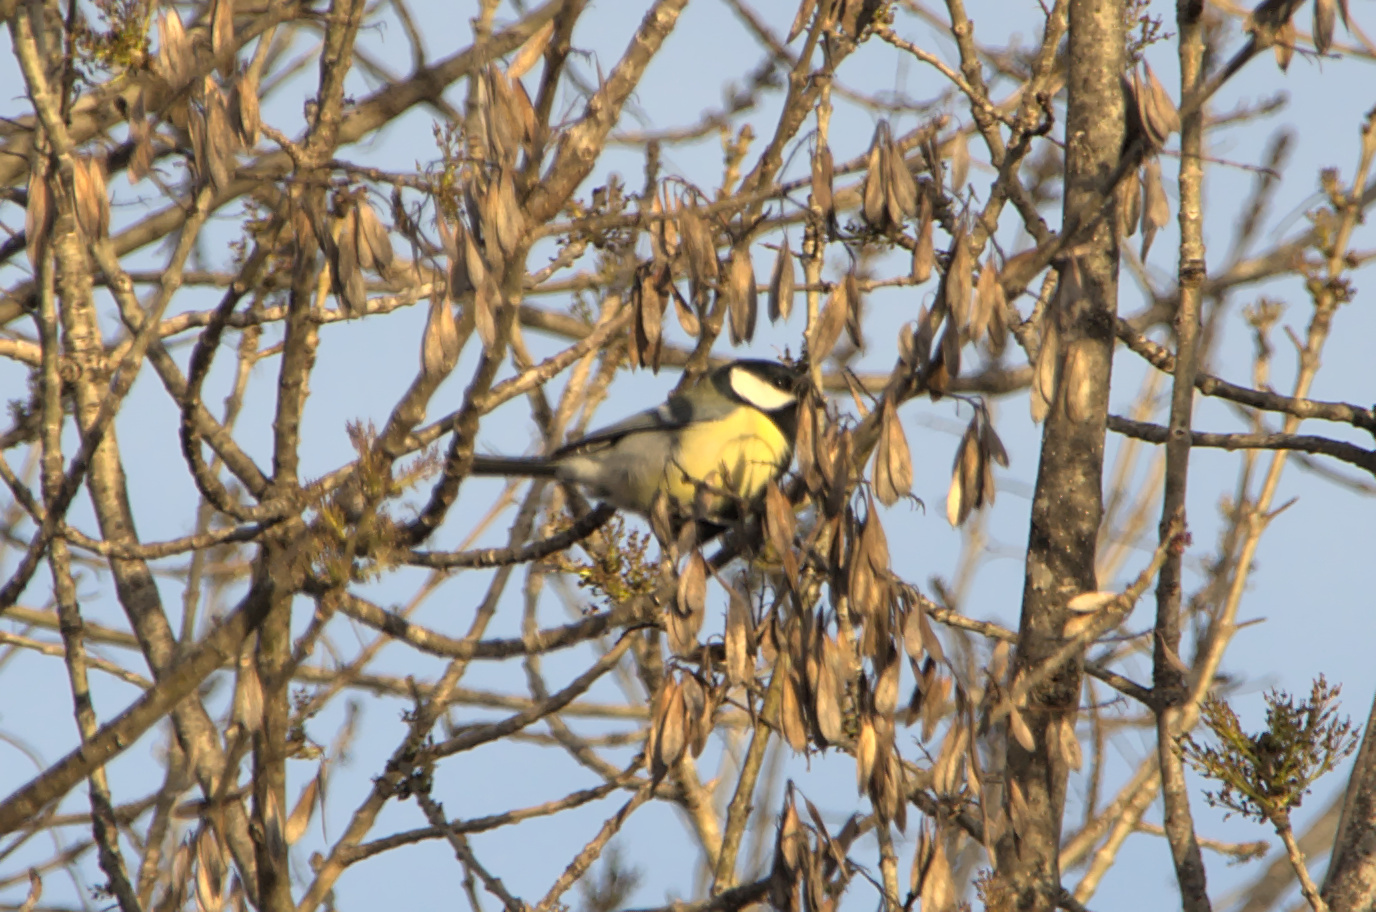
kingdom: Animalia
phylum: Chordata
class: Aves
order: Passeriformes
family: Paridae
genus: Parus
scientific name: Parus major
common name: Great tit
